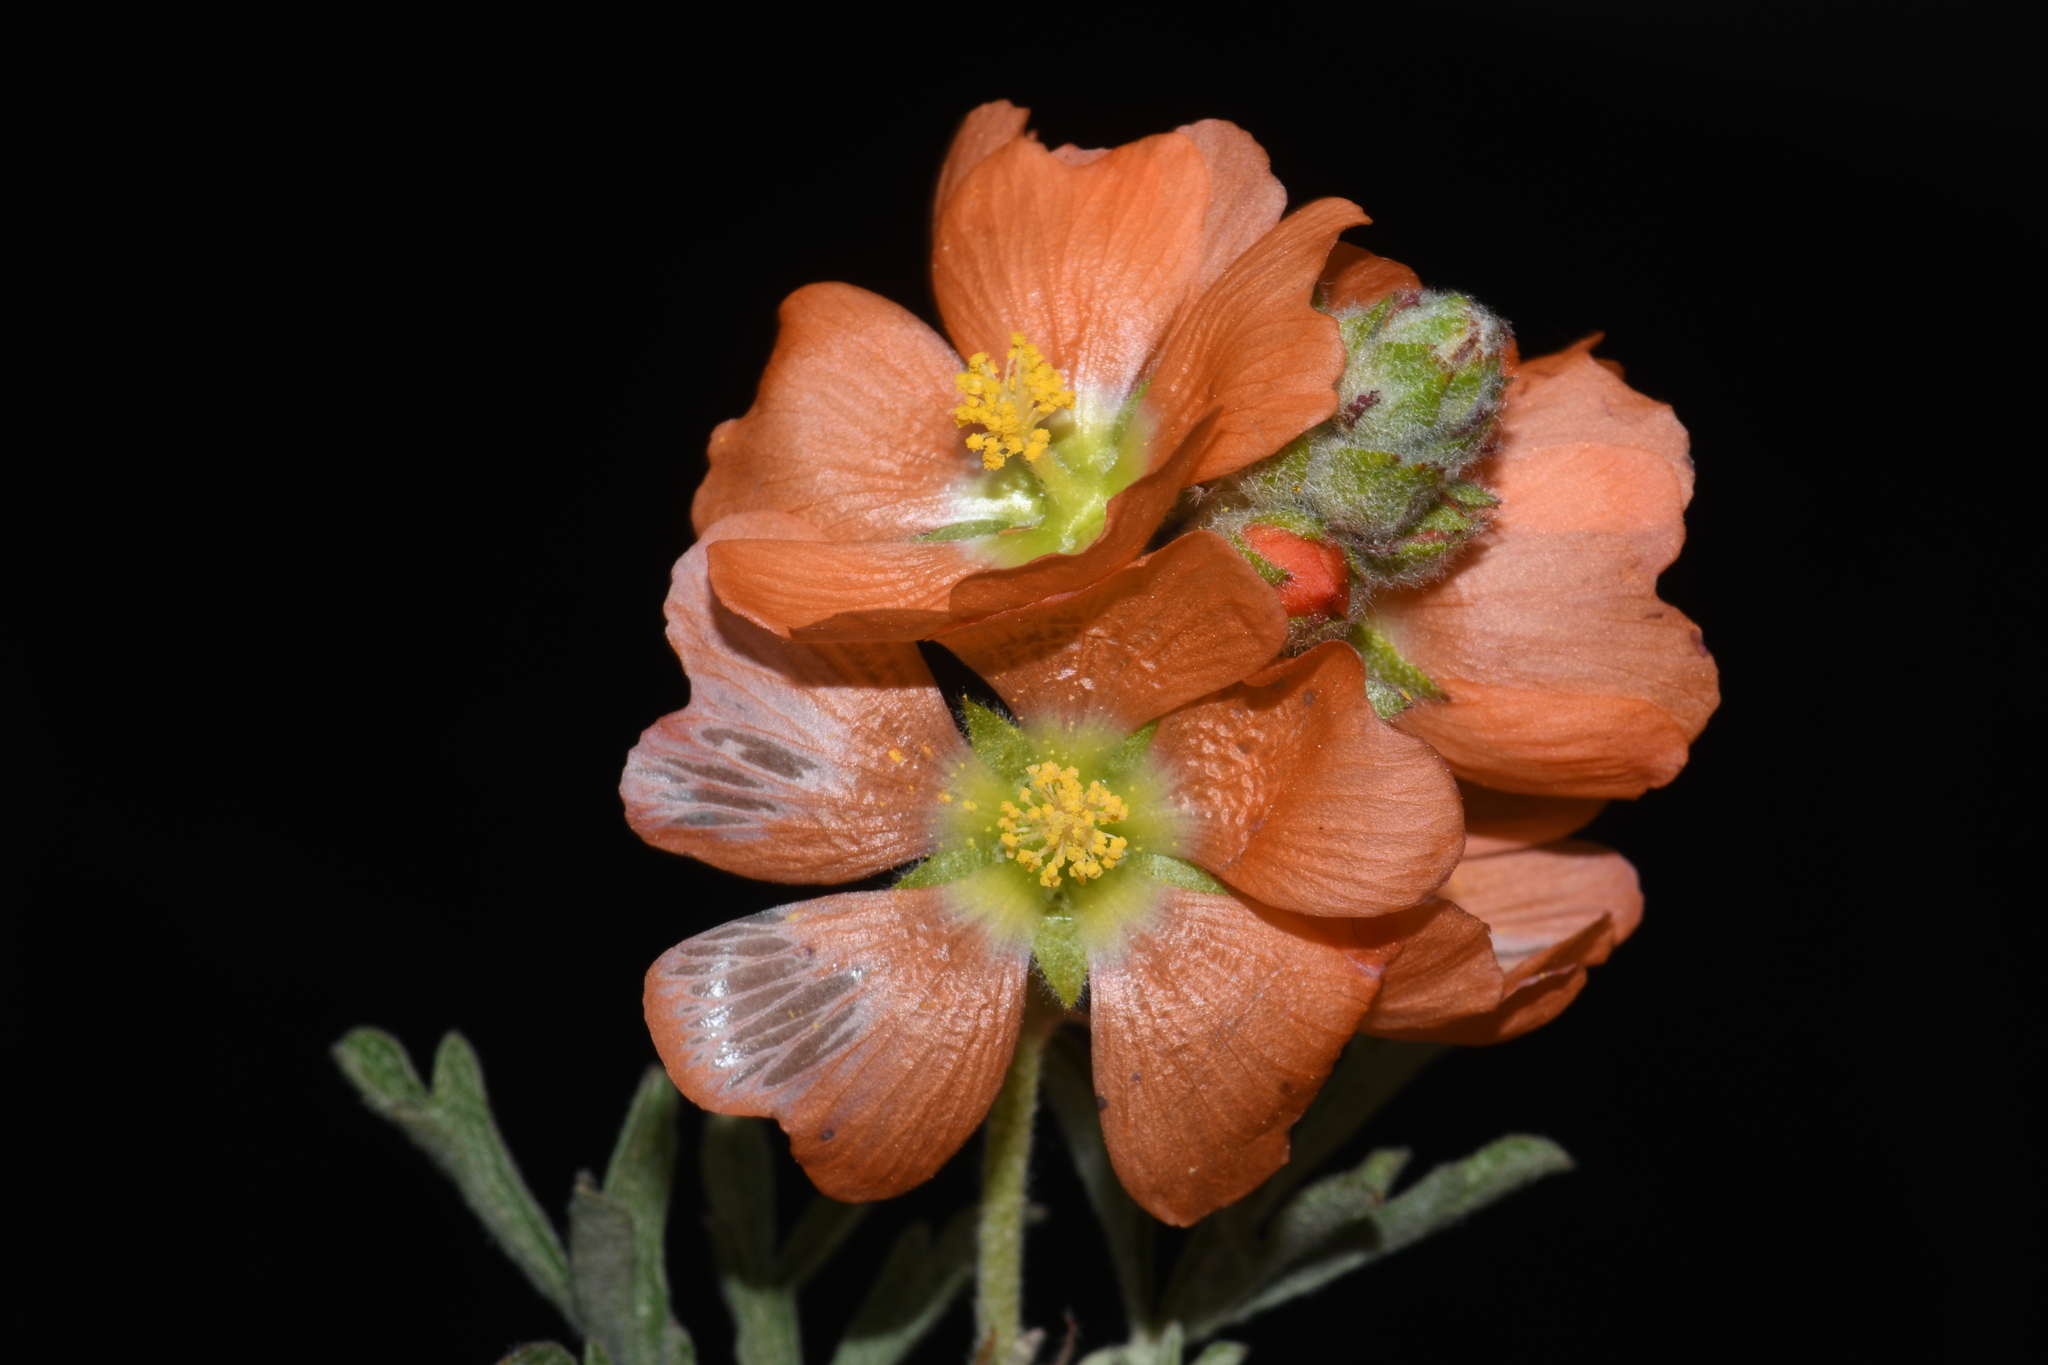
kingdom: Plantae
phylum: Tracheophyta
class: Magnoliopsida
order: Malvales
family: Malvaceae
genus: Sphaeralcea
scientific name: Sphaeralcea coccinea
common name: Moss-rose
